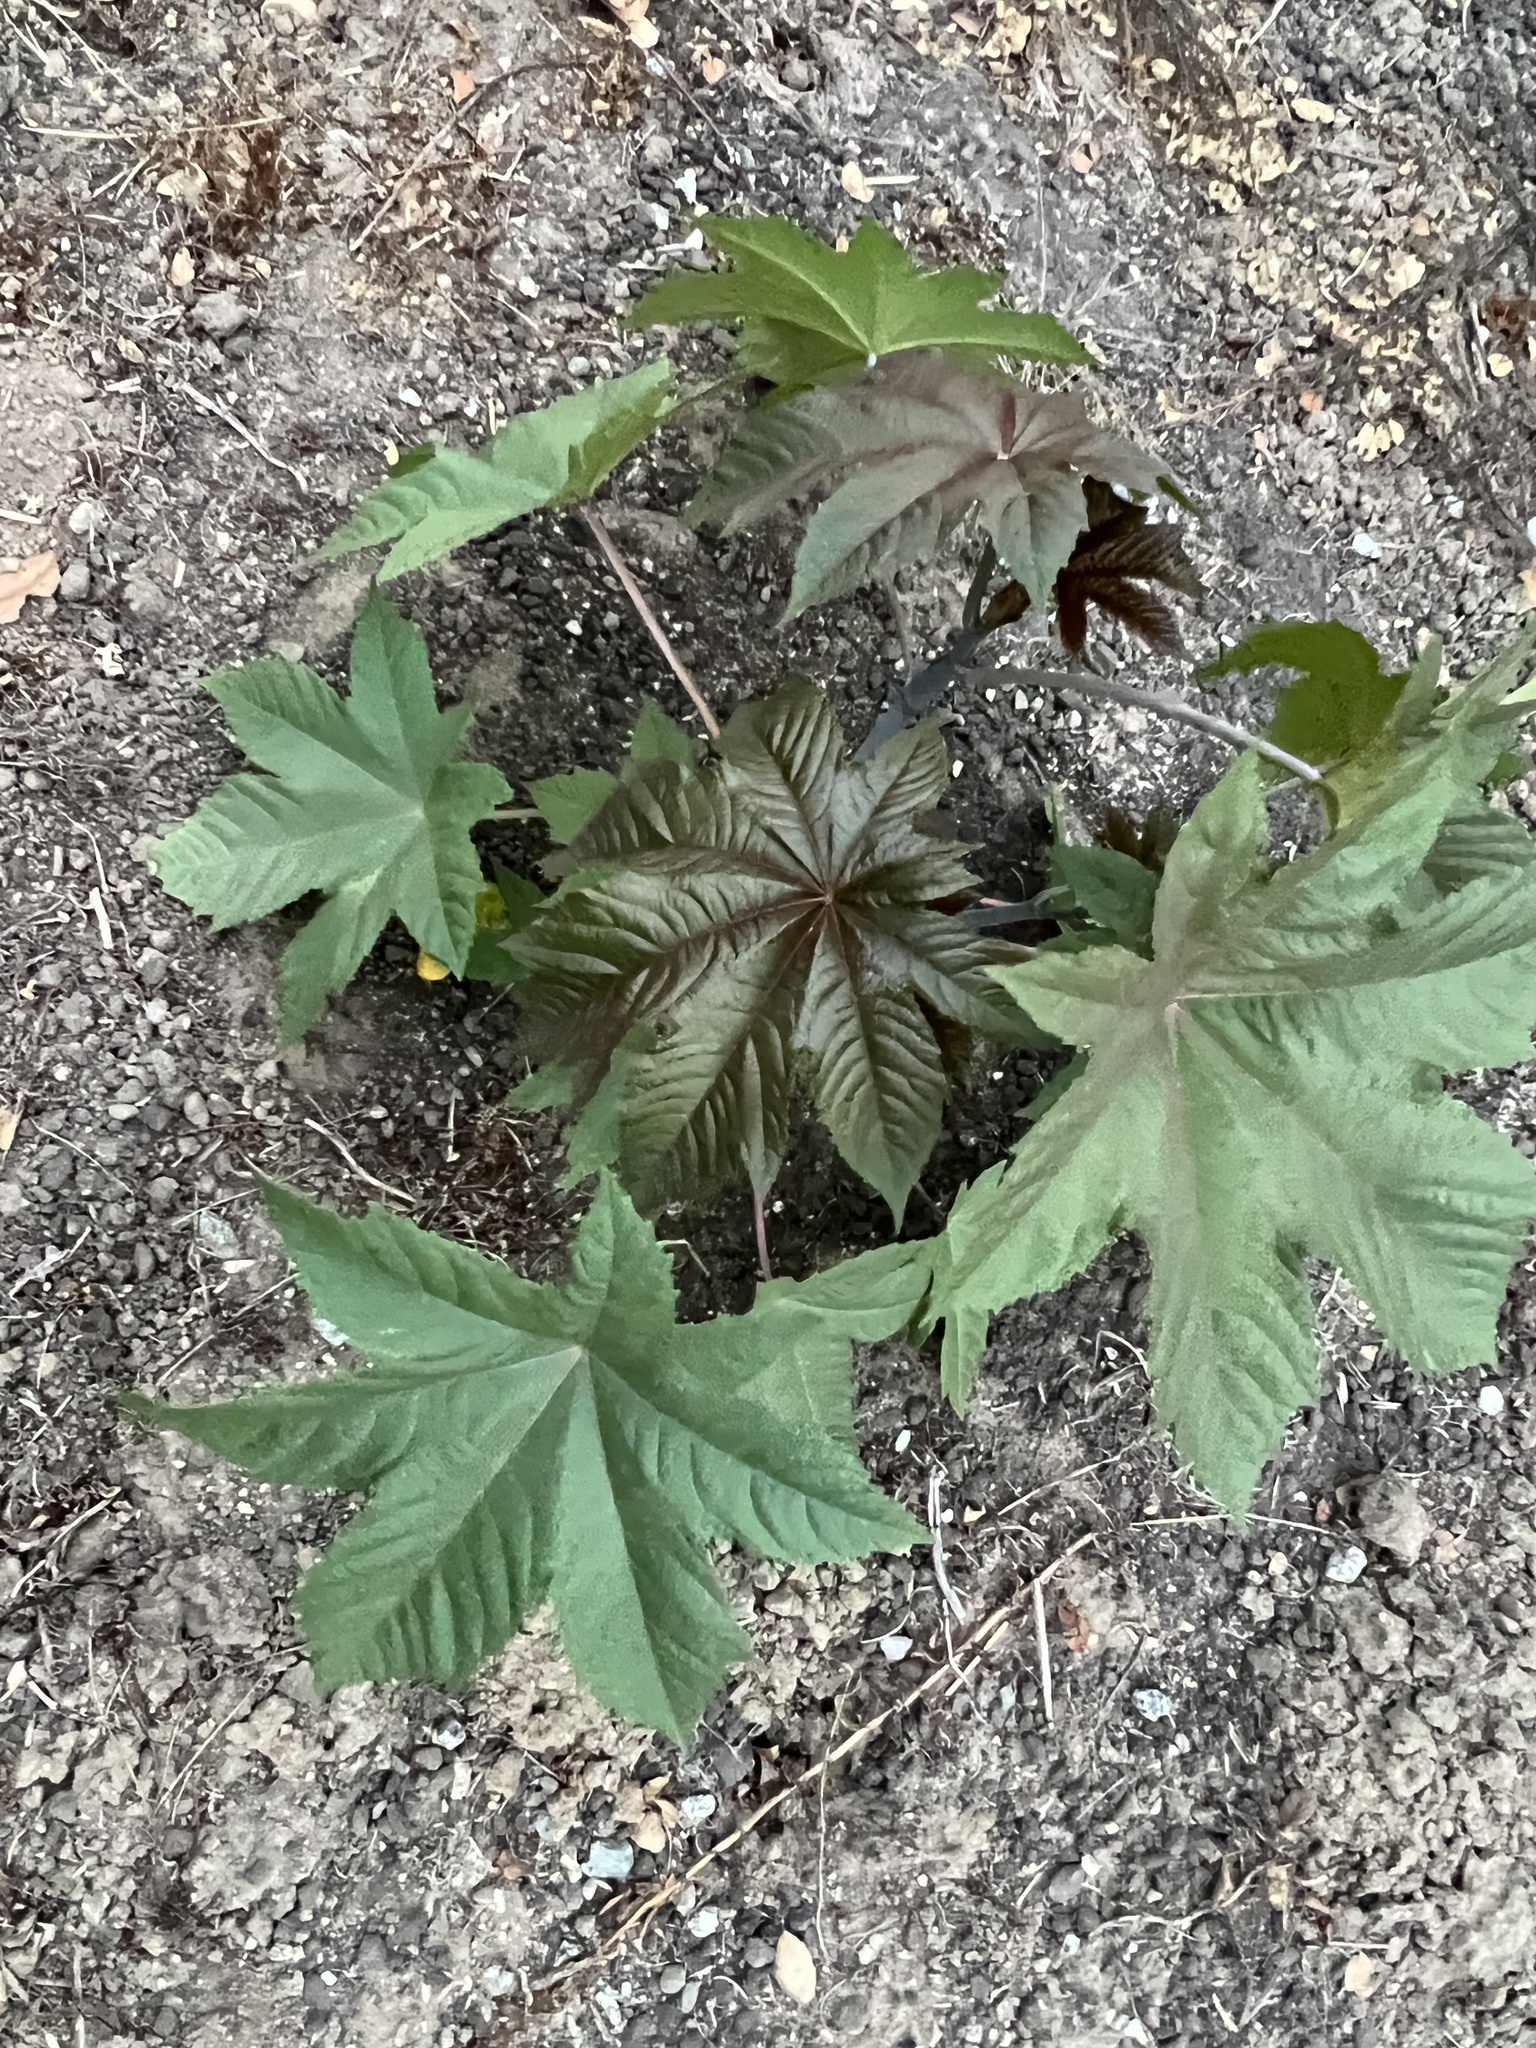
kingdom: Plantae
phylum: Tracheophyta
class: Magnoliopsida
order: Malpighiales
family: Euphorbiaceae
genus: Ricinus
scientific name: Ricinus communis
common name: Castor-oil-plant
